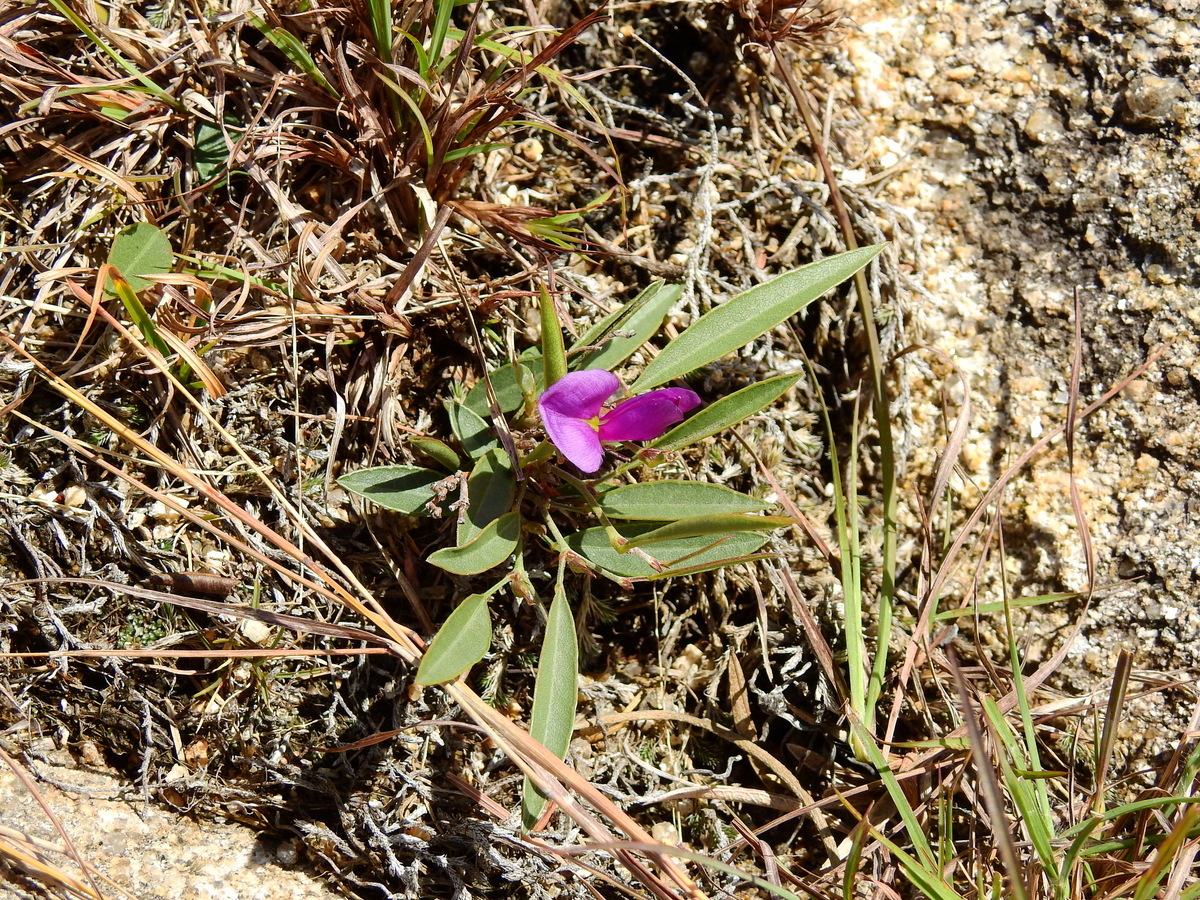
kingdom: Plantae
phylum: Tracheophyta
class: Magnoliopsida
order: Fabales
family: Fabaceae
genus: Nanogalactia
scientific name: Nanogalactia heterophylla
